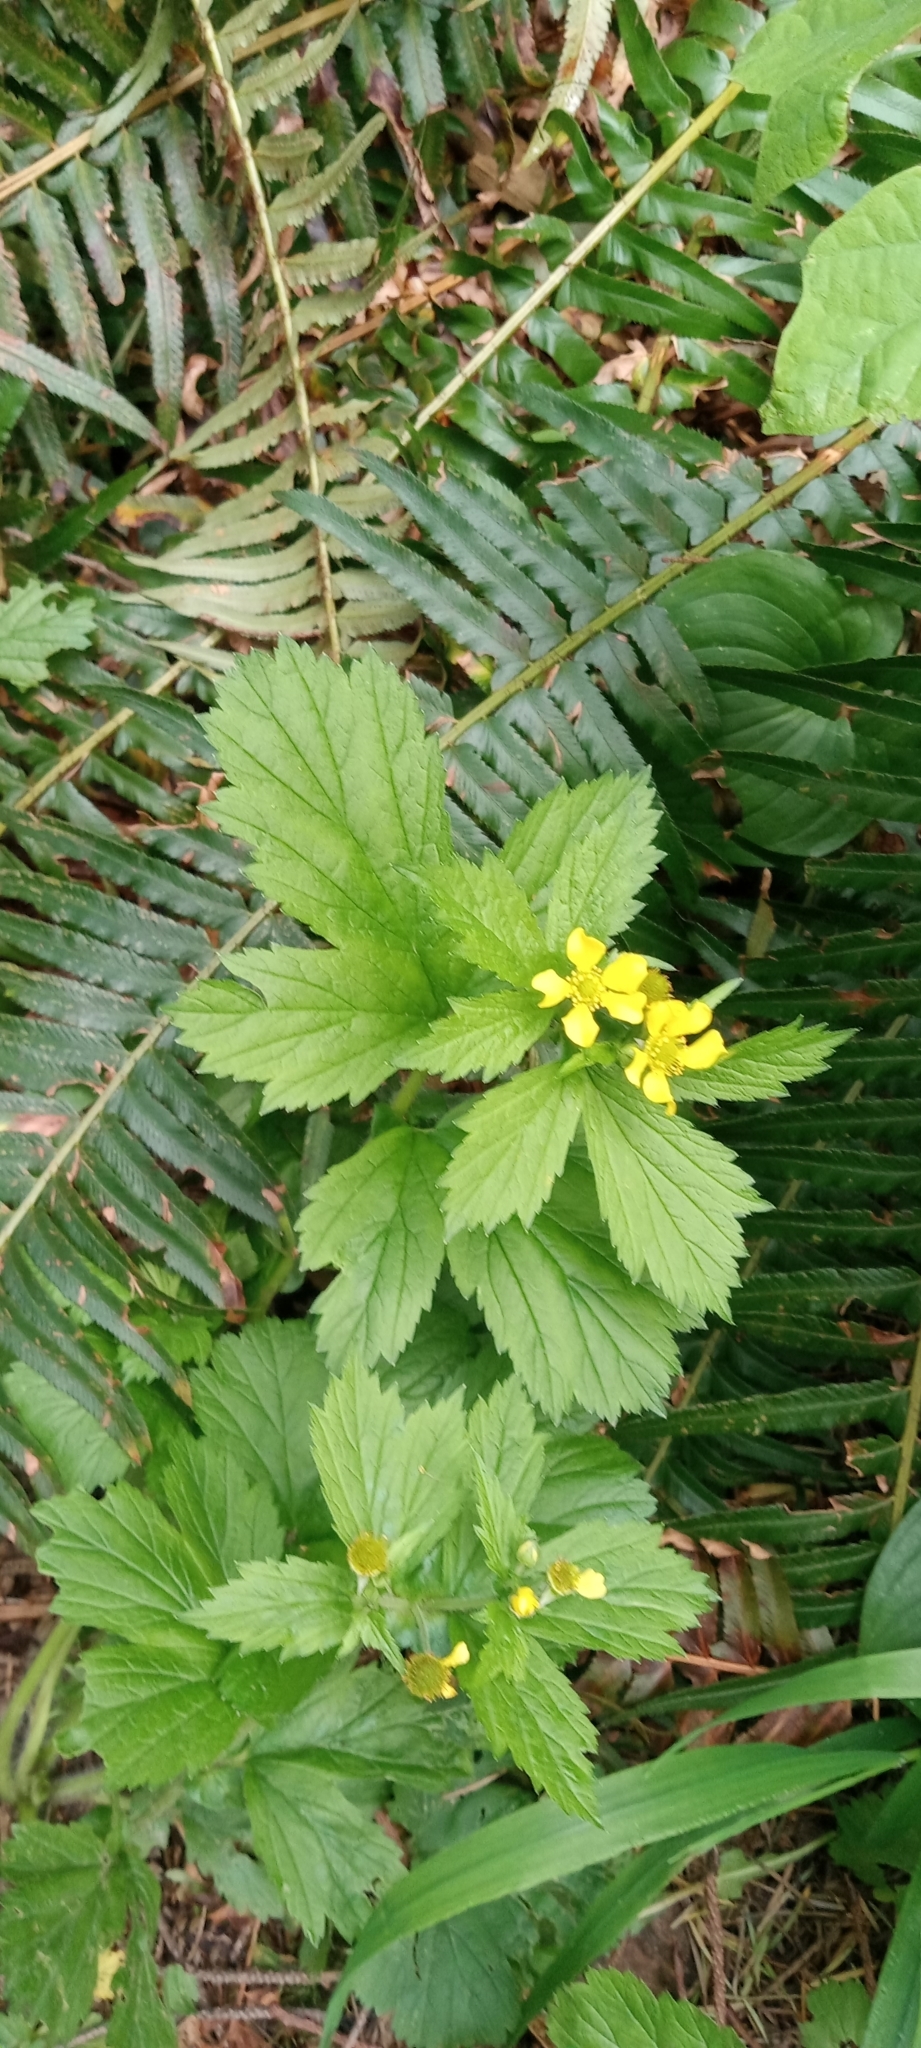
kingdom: Plantae
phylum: Tracheophyta
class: Magnoliopsida
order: Rosales
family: Rosaceae
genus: Geum
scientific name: Geum macrophyllum
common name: Large-leaved avens
